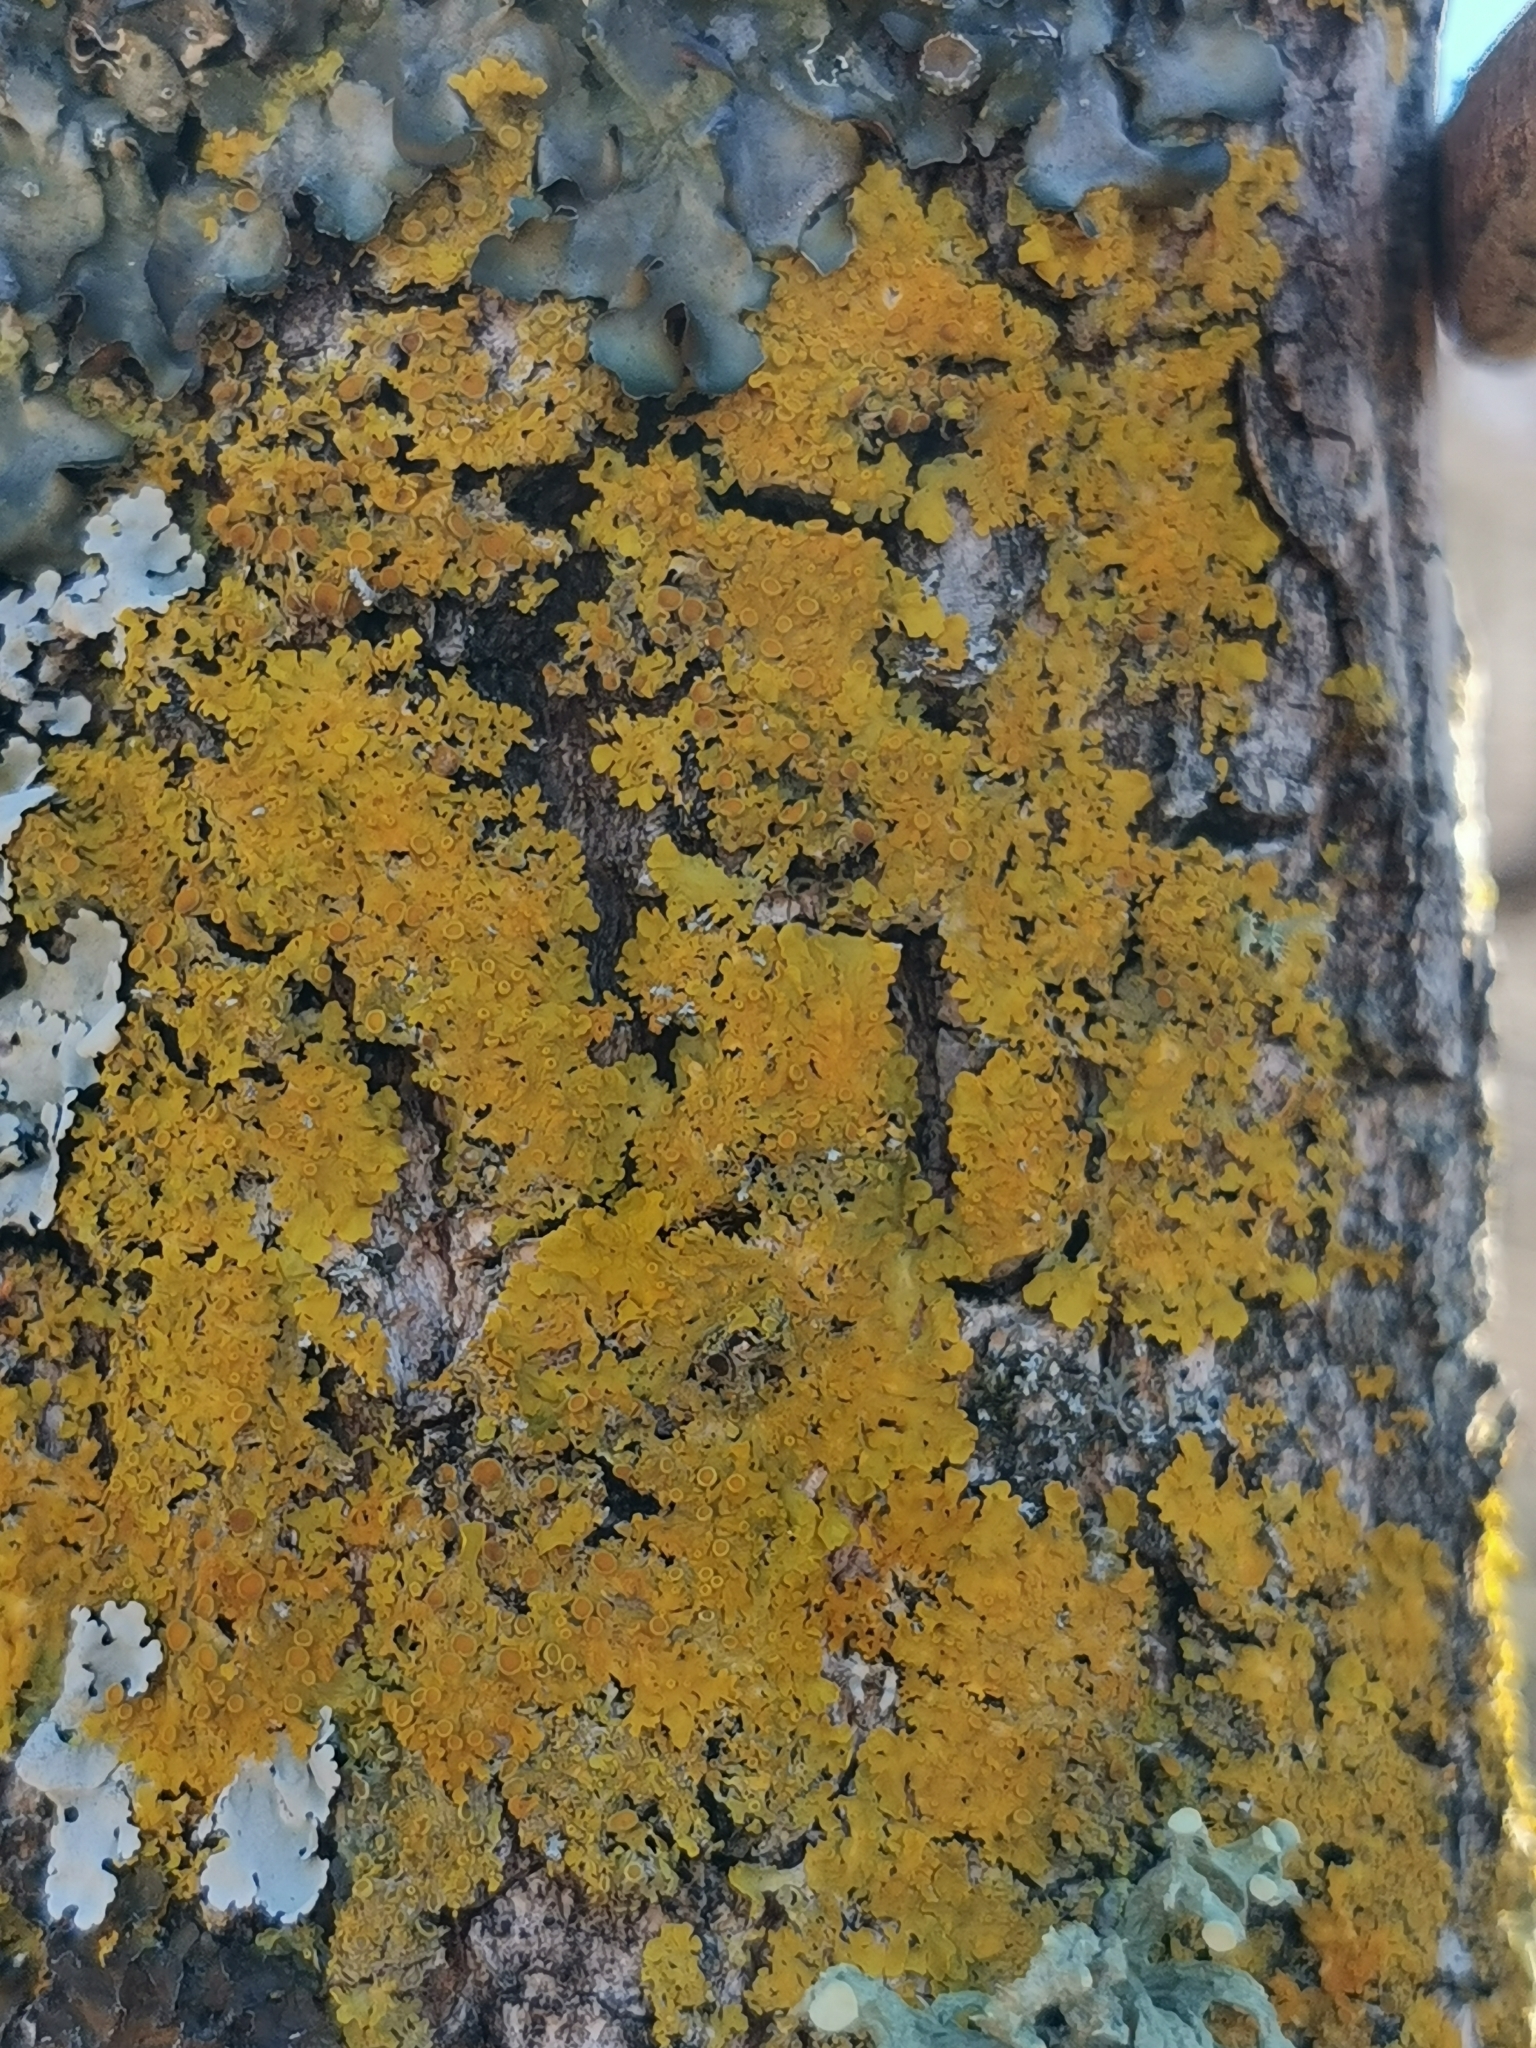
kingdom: Fungi
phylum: Ascomycota
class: Lecanoromycetes
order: Teloschistales
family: Teloschistaceae
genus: Xanthoria
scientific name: Xanthoria parietina
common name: Common orange lichen
